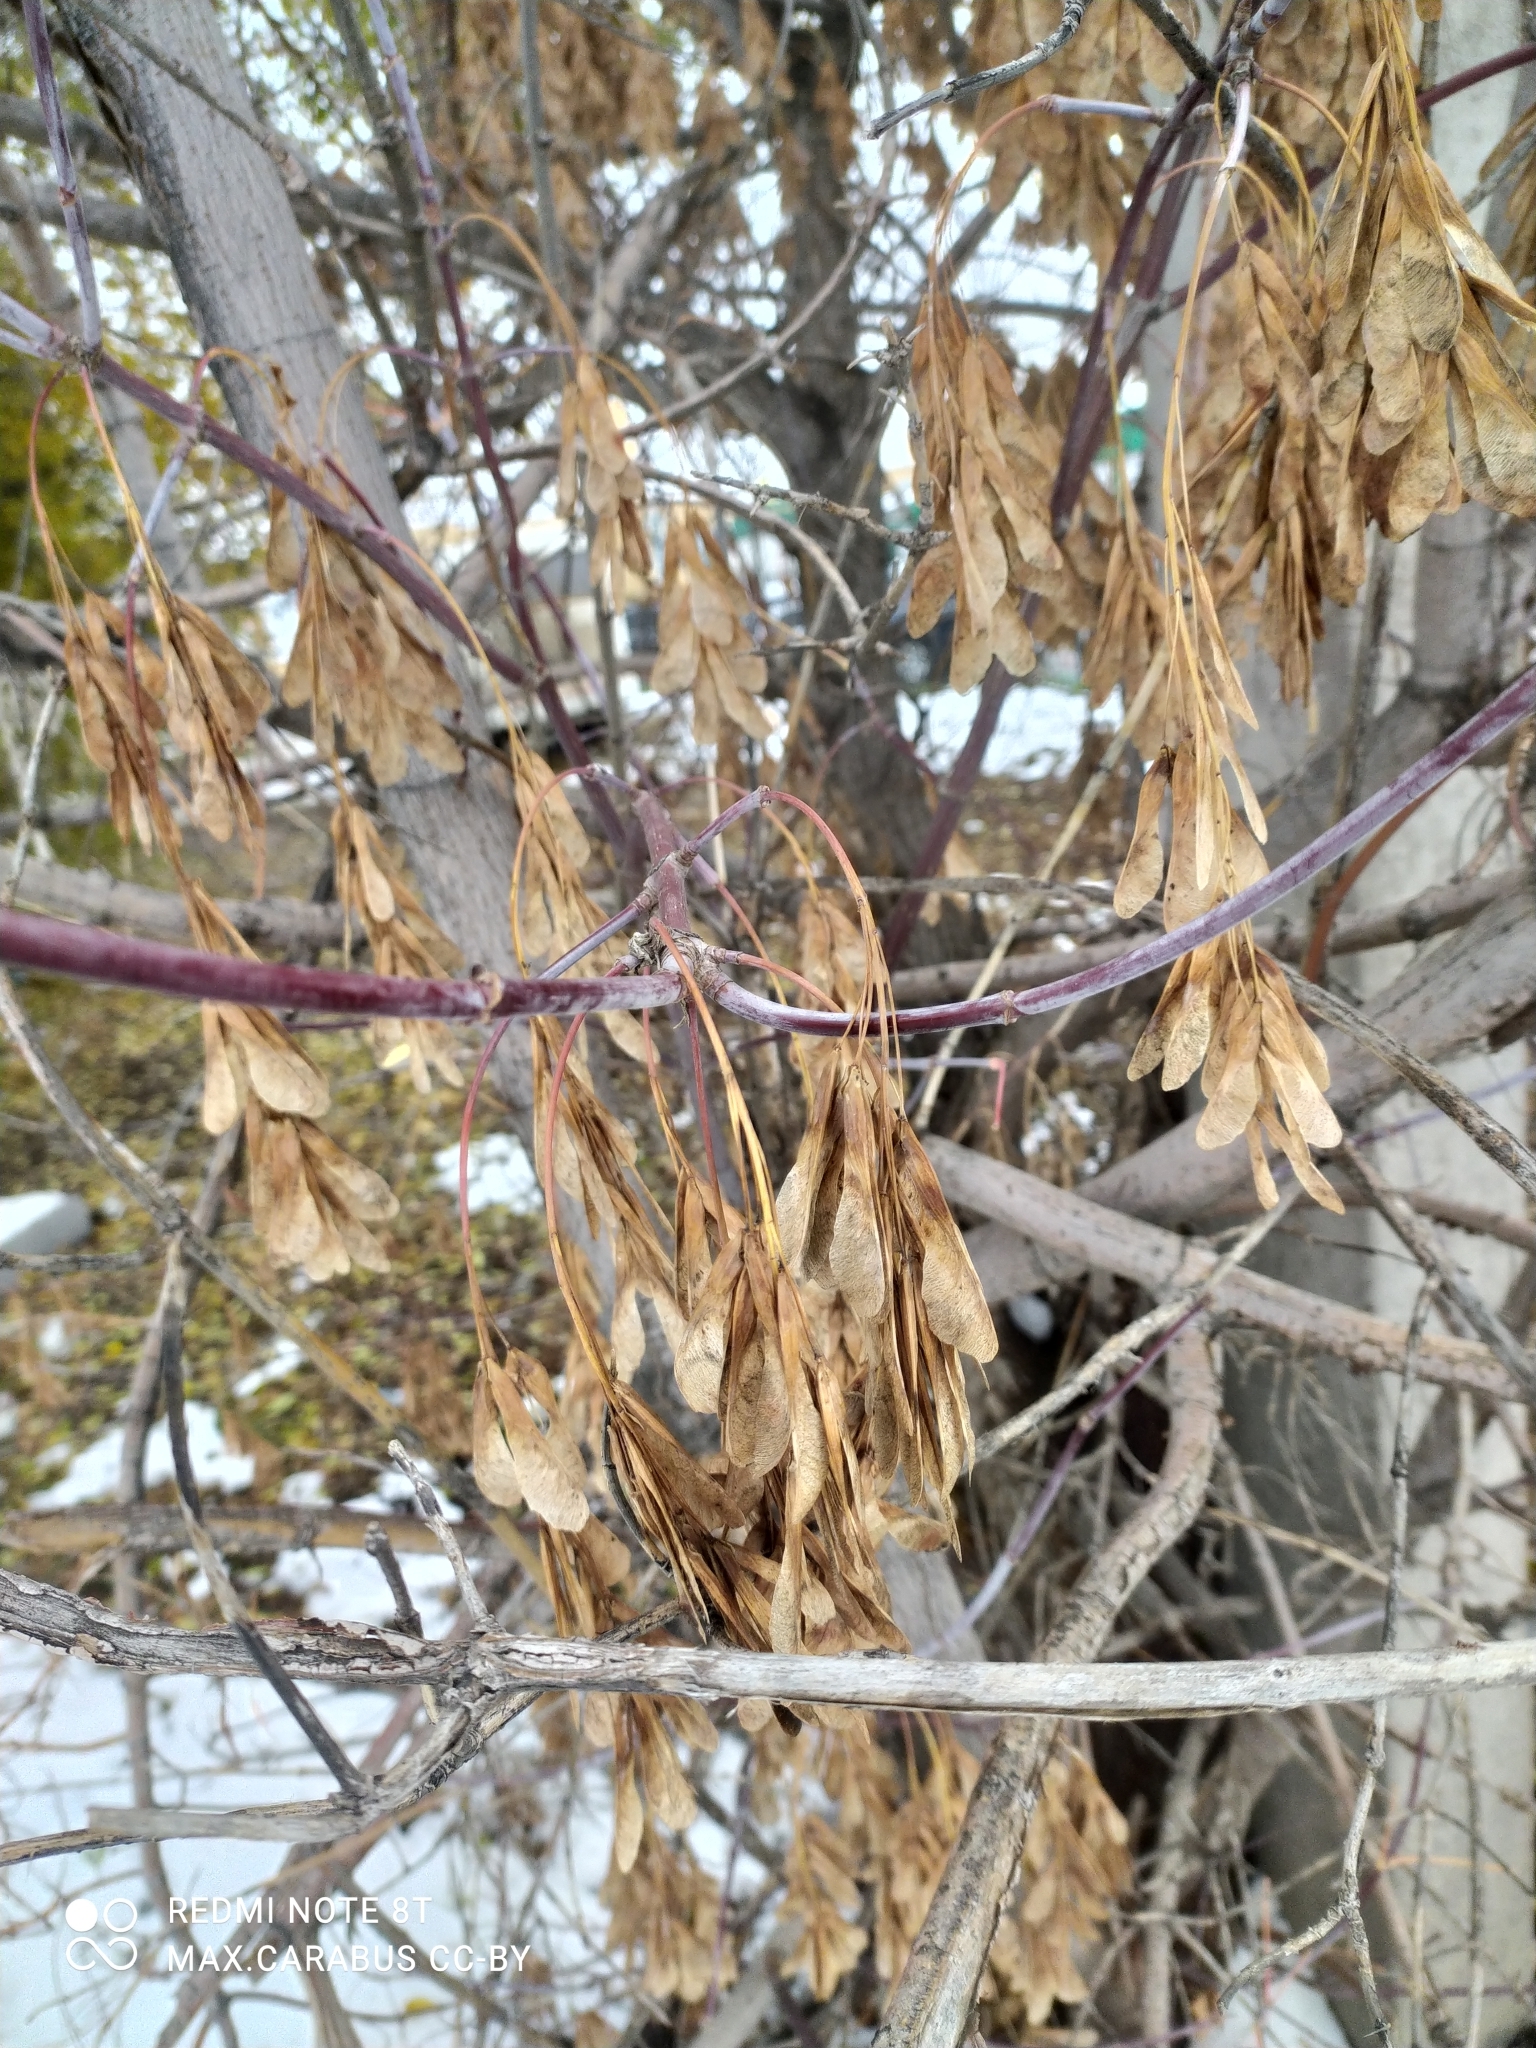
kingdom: Plantae
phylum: Tracheophyta
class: Magnoliopsida
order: Sapindales
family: Sapindaceae
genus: Acer
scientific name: Acer negundo
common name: Ashleaf maple
